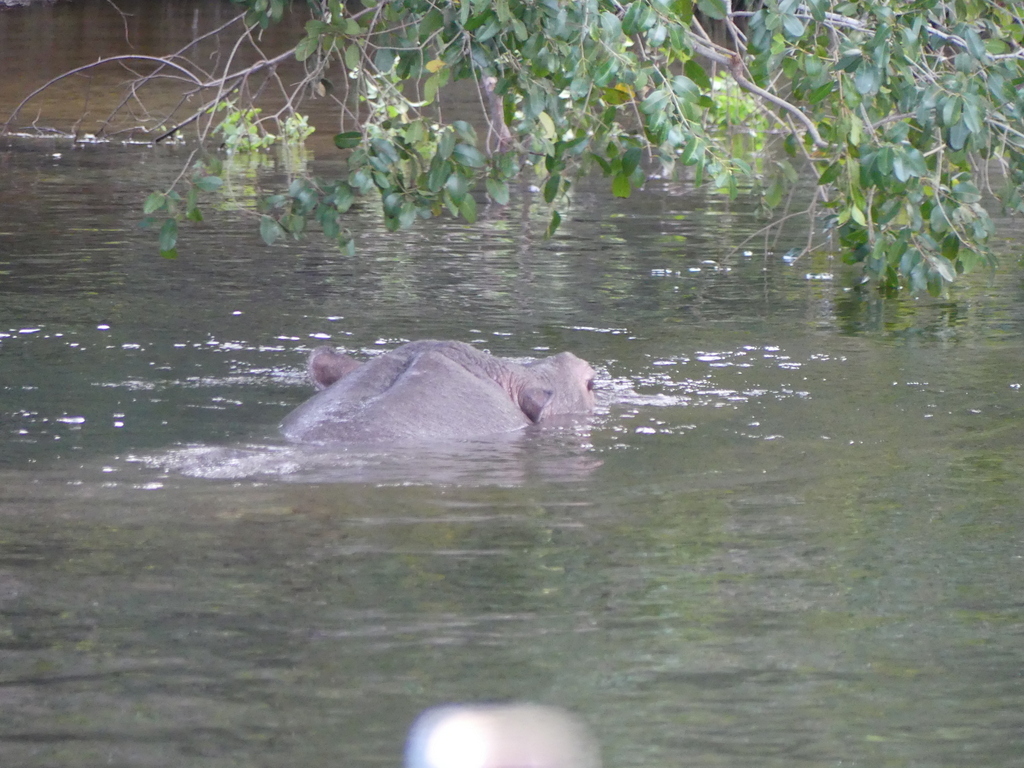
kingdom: Animalia
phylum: Chordata
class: Mammalia
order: Artiodactyla
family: Hippopotamidae
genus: Hippopotamus
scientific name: Hippopotamus amphibius
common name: Common hippopotamus
